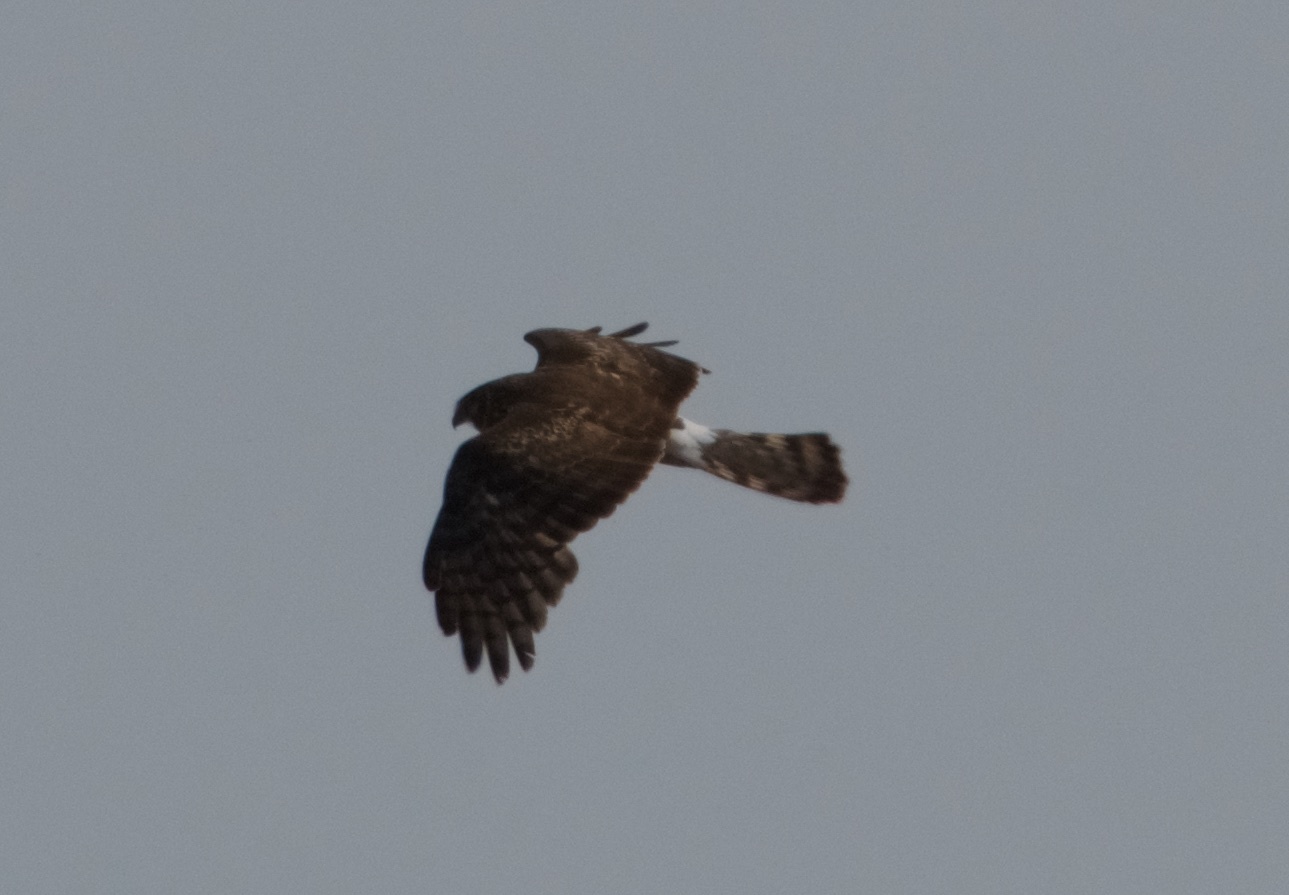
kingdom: Animalia
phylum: Chordata
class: Aves
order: Accipitriformes
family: Accipitridae
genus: Circus
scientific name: Circus cyaneus
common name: Hen harrier
